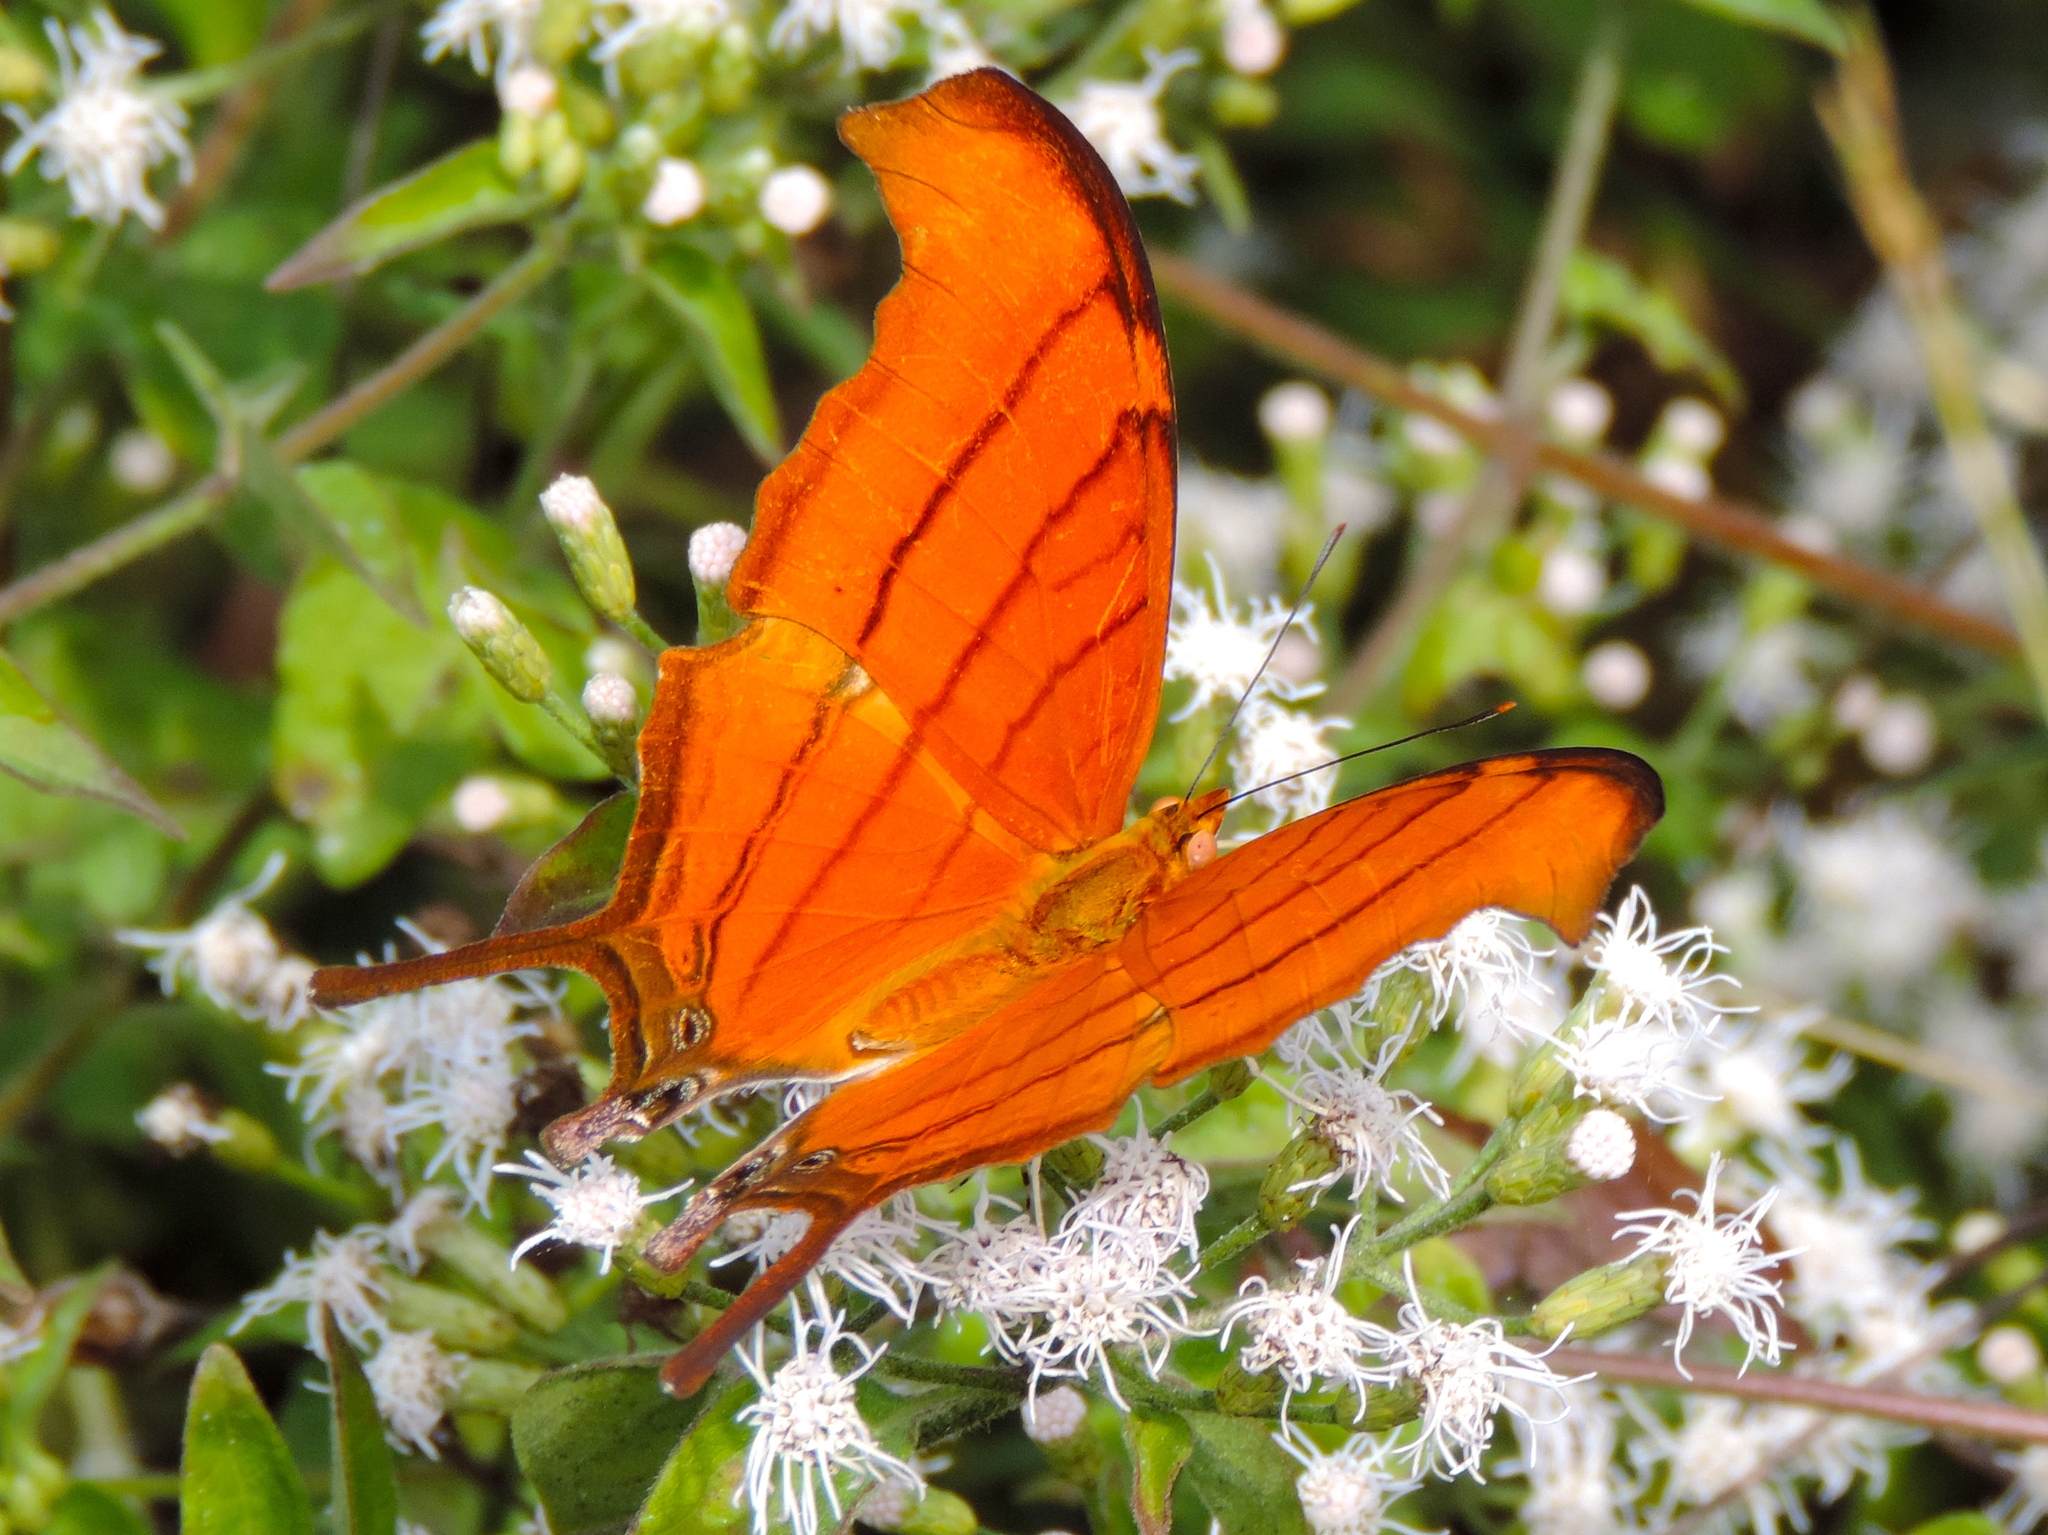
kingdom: Animalia
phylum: Arthropoda
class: Insecta
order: Lepidoptera
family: Nymphalidae
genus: Marpesia
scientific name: Marpesia petreus
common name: Red dagger wing
